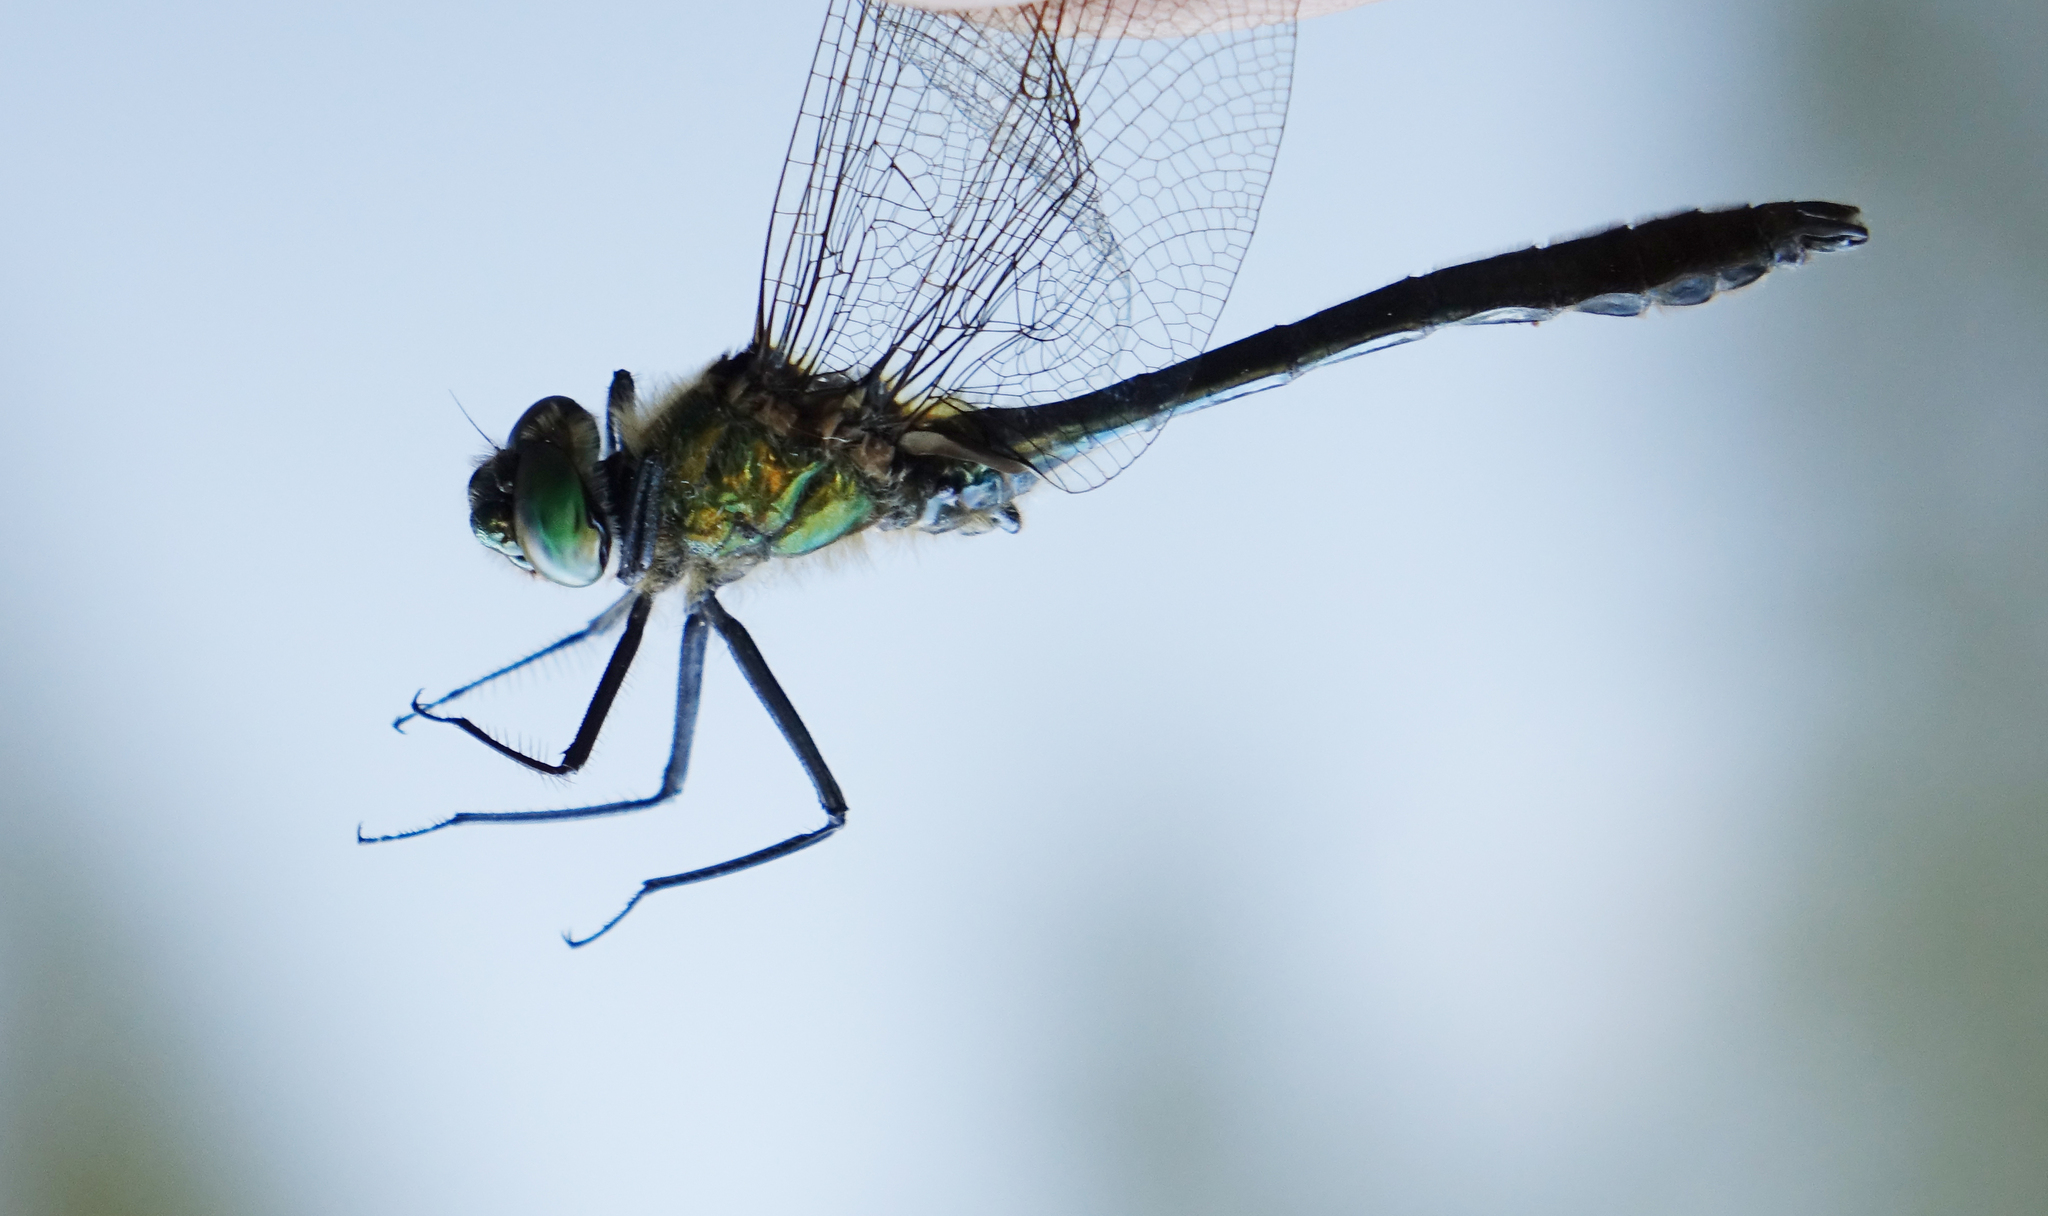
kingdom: Animalia
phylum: Arthropoda
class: Insecta
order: Odonata
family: Corduliidae
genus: Cordulia
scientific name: Cordulia aenea
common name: Downy emerald
